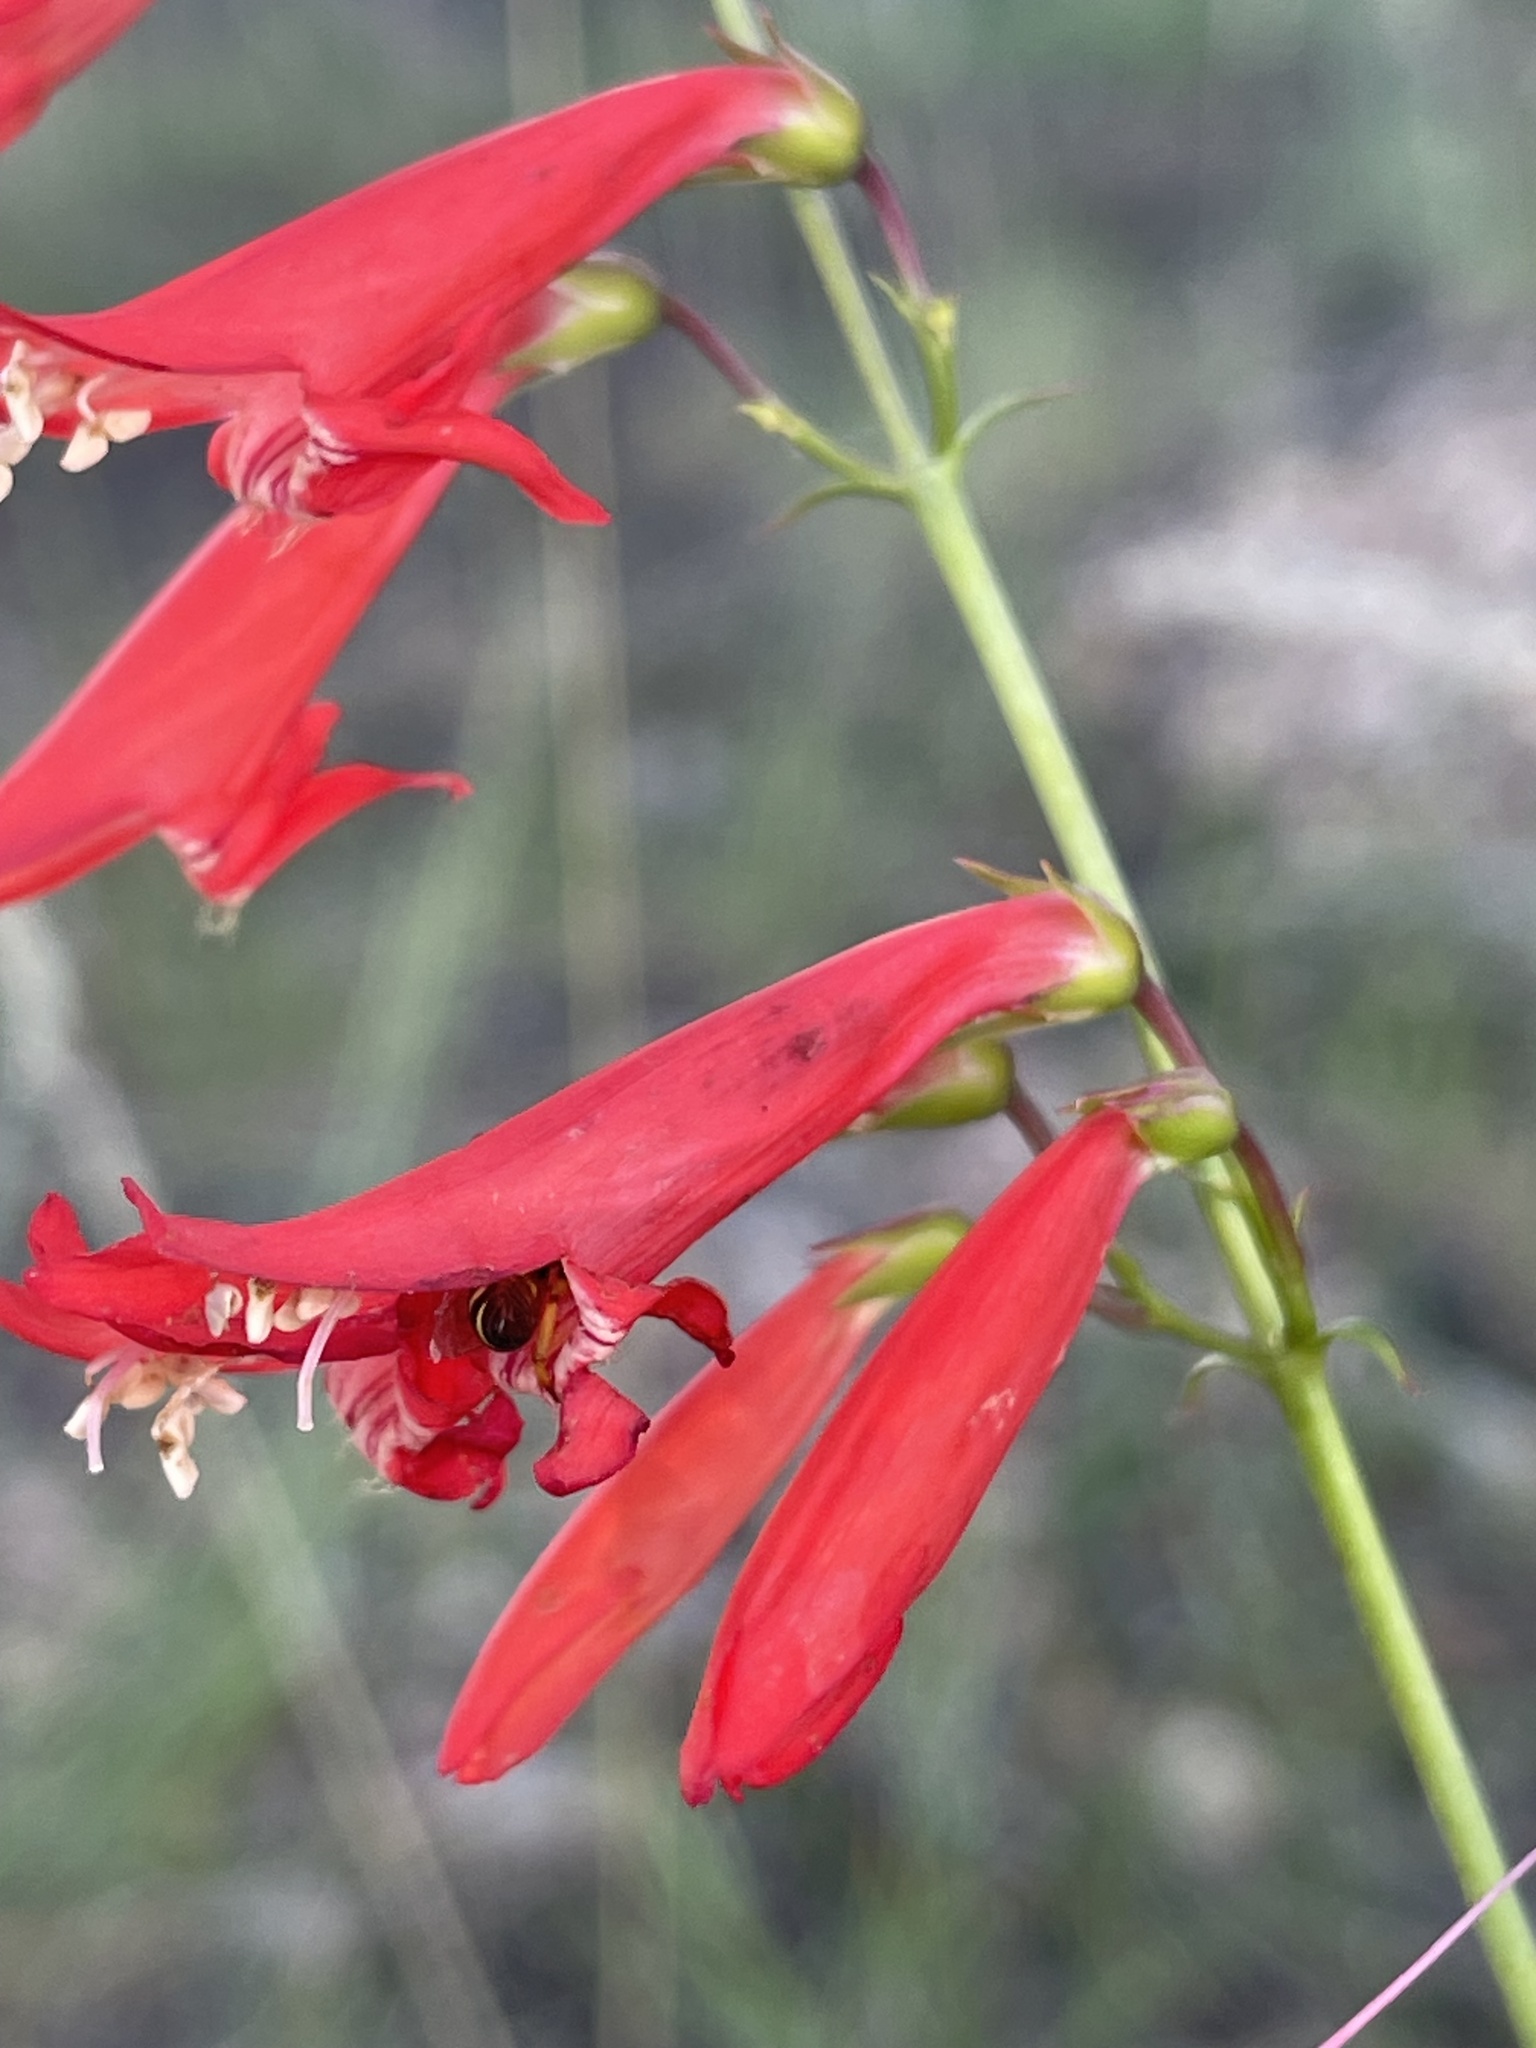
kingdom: Plantae
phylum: Tracheophyta
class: Magnoliopsida
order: Lamiales
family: Plantaginaceae
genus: Penstemon
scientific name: Penstemon barbatus
